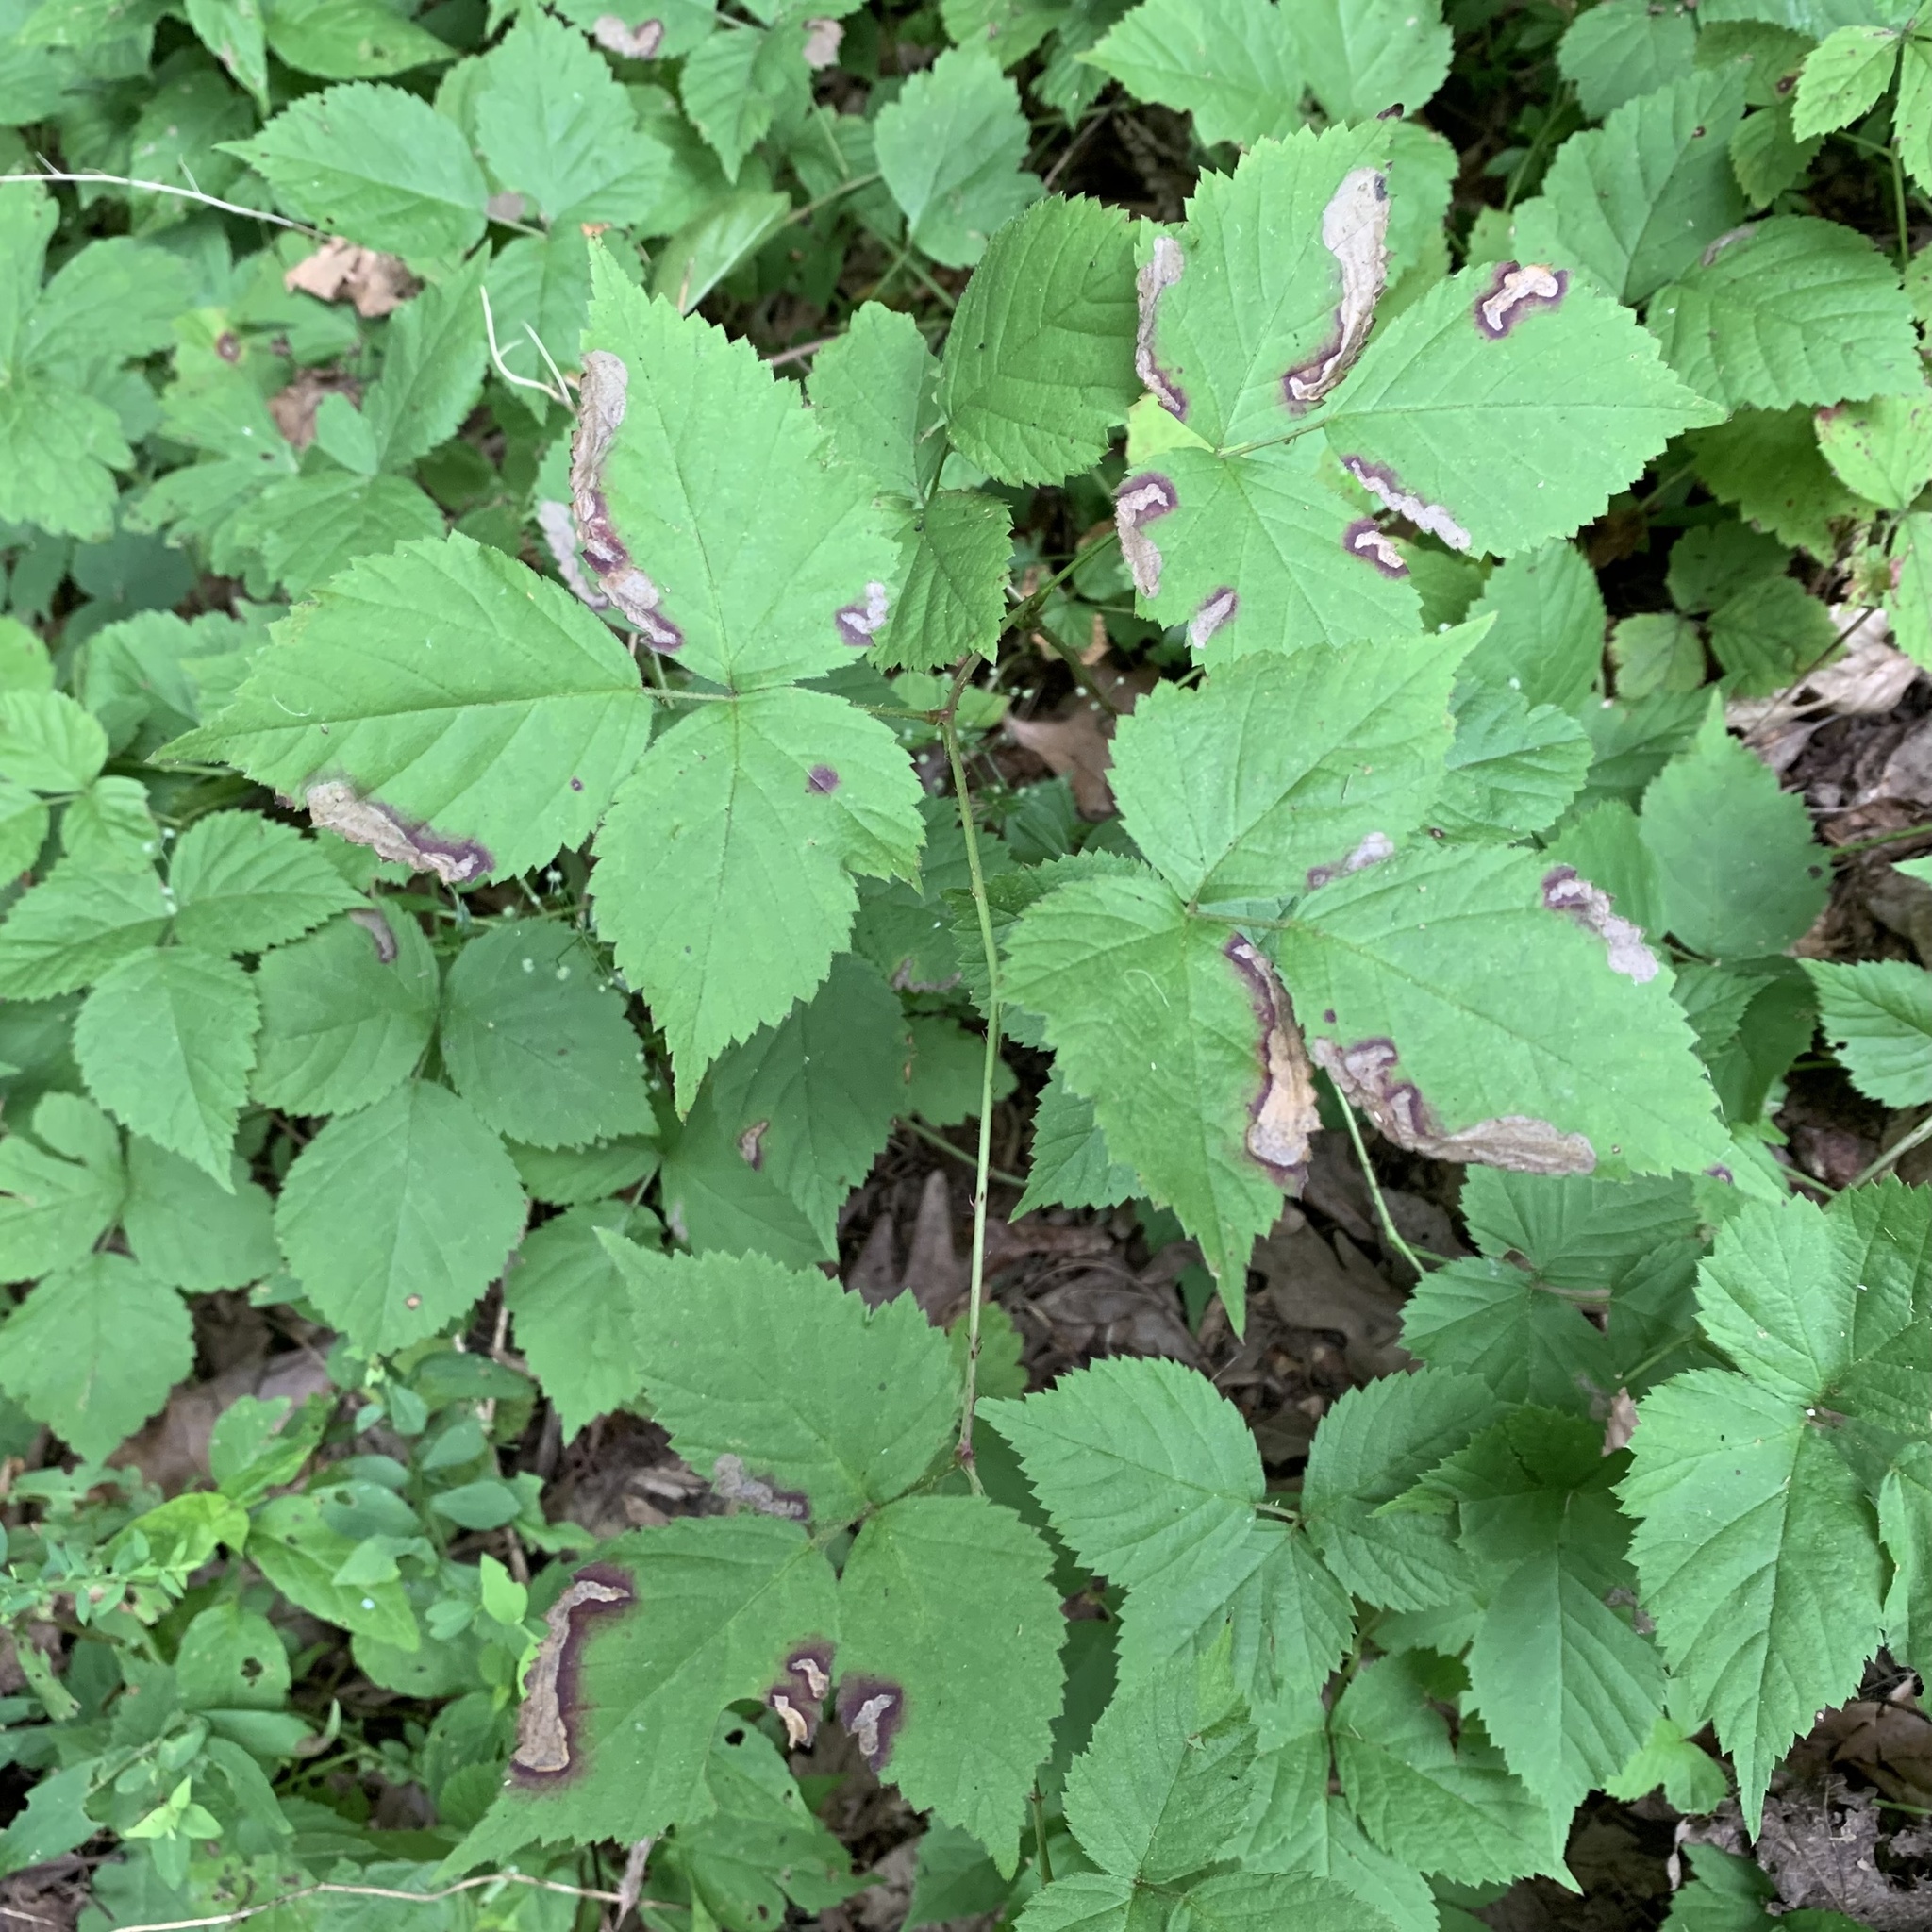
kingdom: Animalia
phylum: Arthropoda
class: Insecta
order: Hymenoptera
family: Tenthredinidae
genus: Metallus
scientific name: Metallus rohweri
